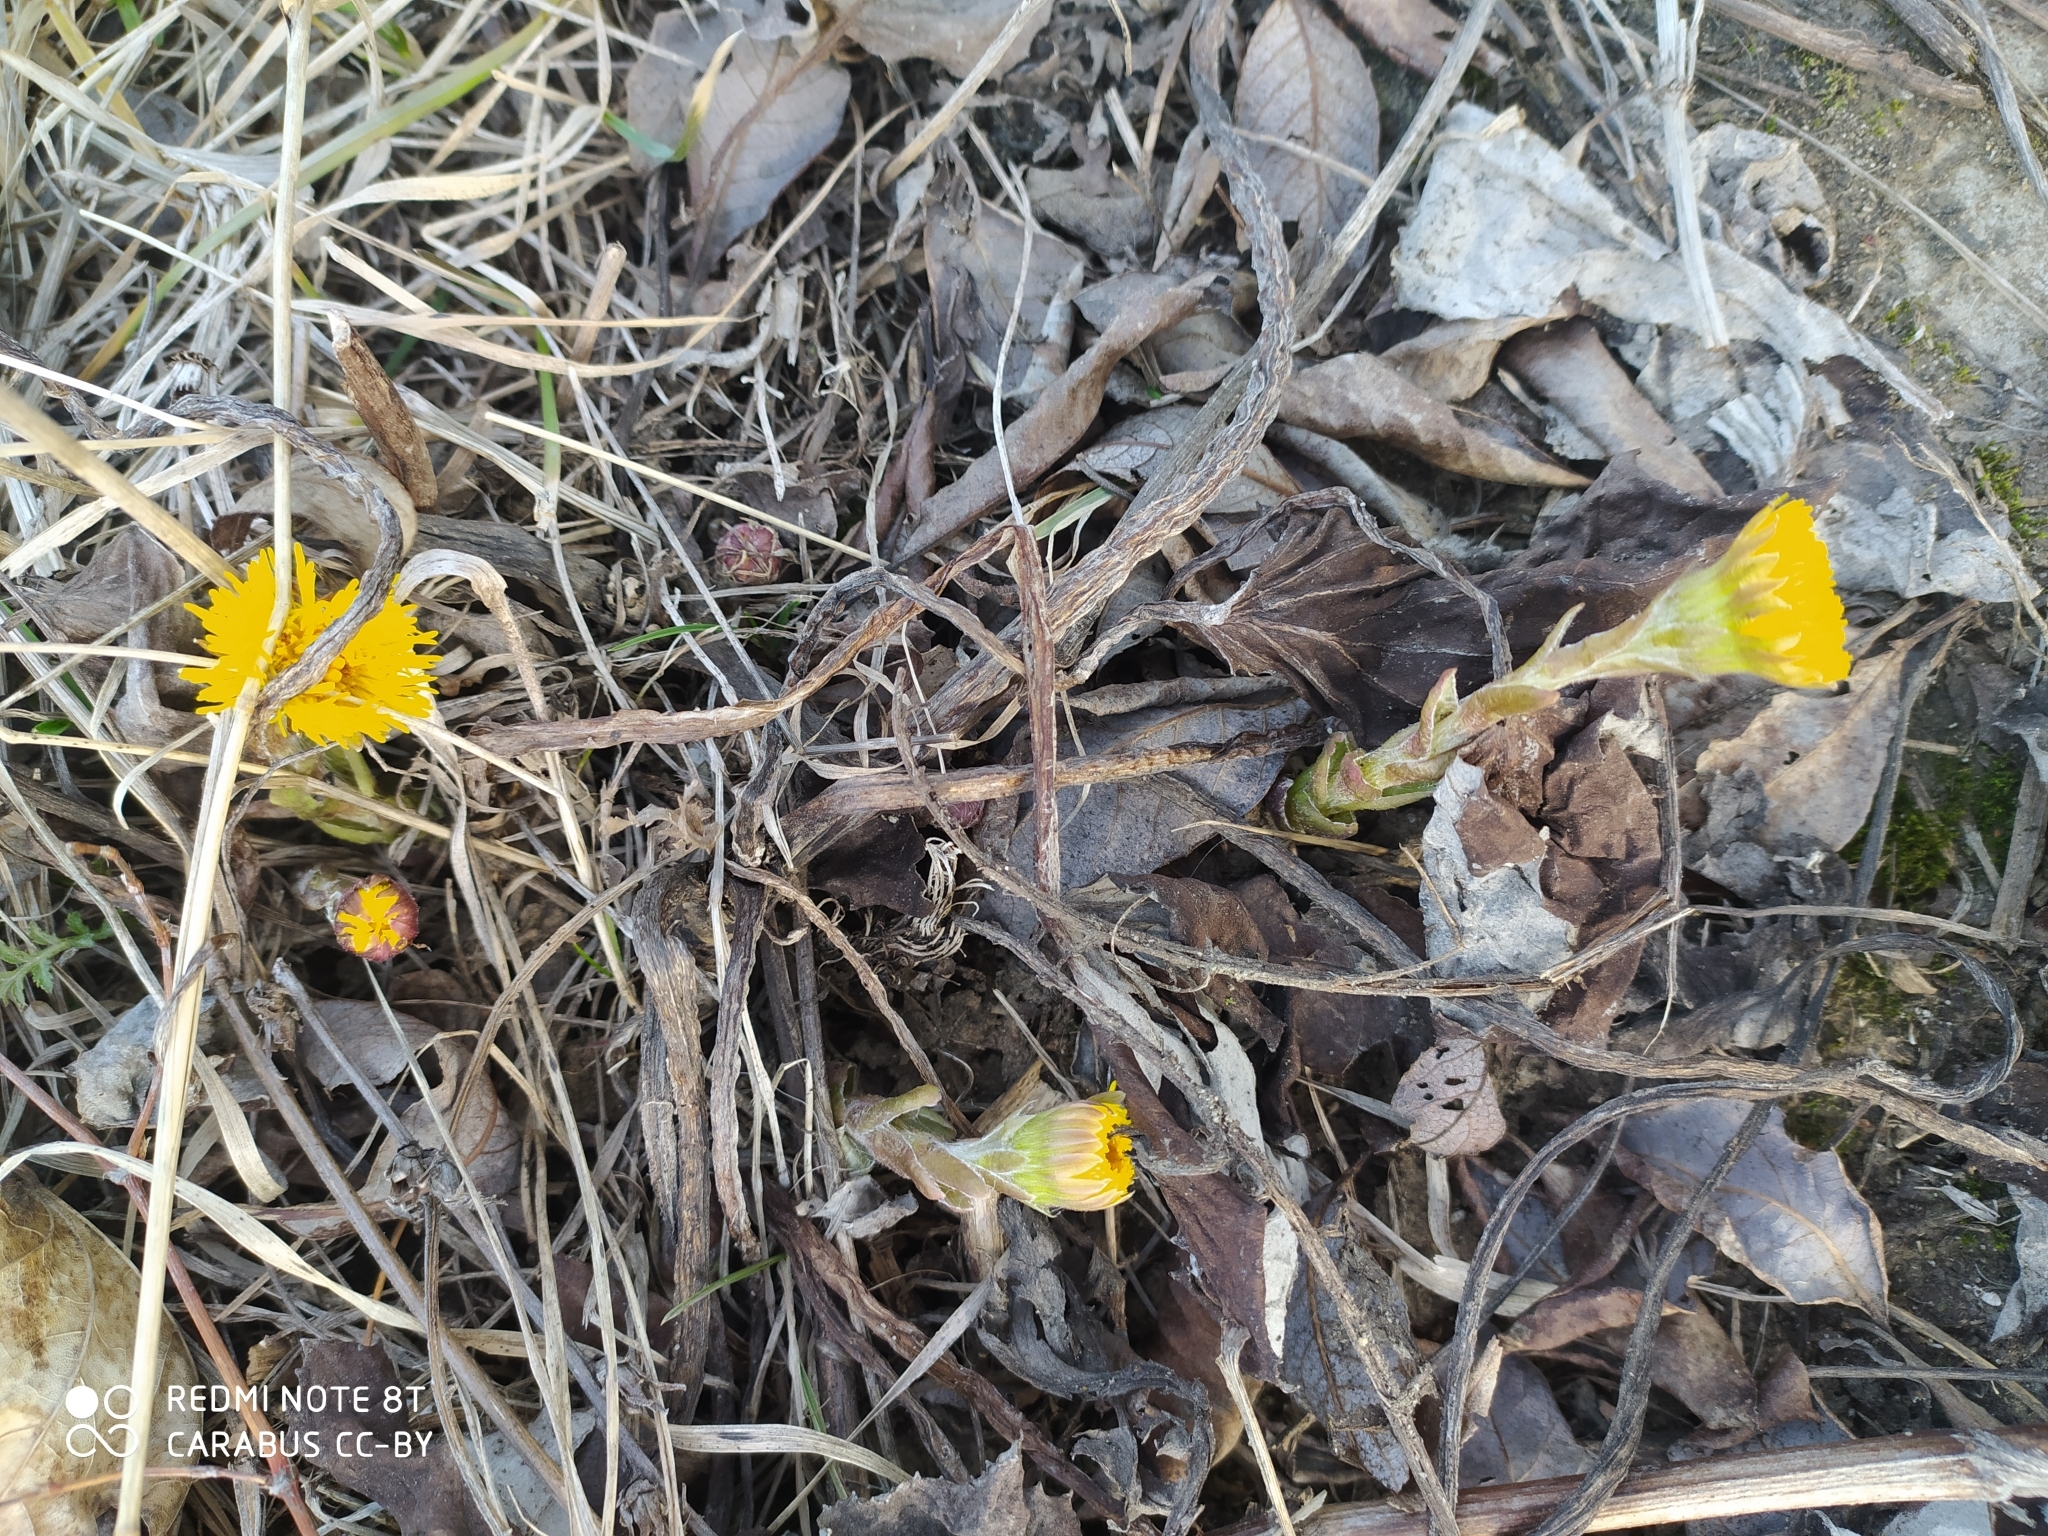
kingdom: Plantae
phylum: Tracheophyta
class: Magnoliopsida
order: Asterales
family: Asteraceae
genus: Tussilago
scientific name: Tussilago farfara
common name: Coltsfoot
